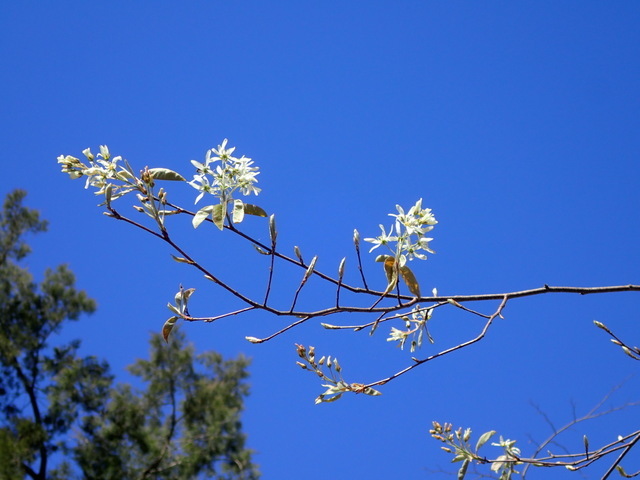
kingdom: Plantae
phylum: Tracheophyta
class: Magnoliopsida
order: Rosales
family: Rosaceae
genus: Amelanchier
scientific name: Amelanchier arborea
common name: Downy serviceberry
